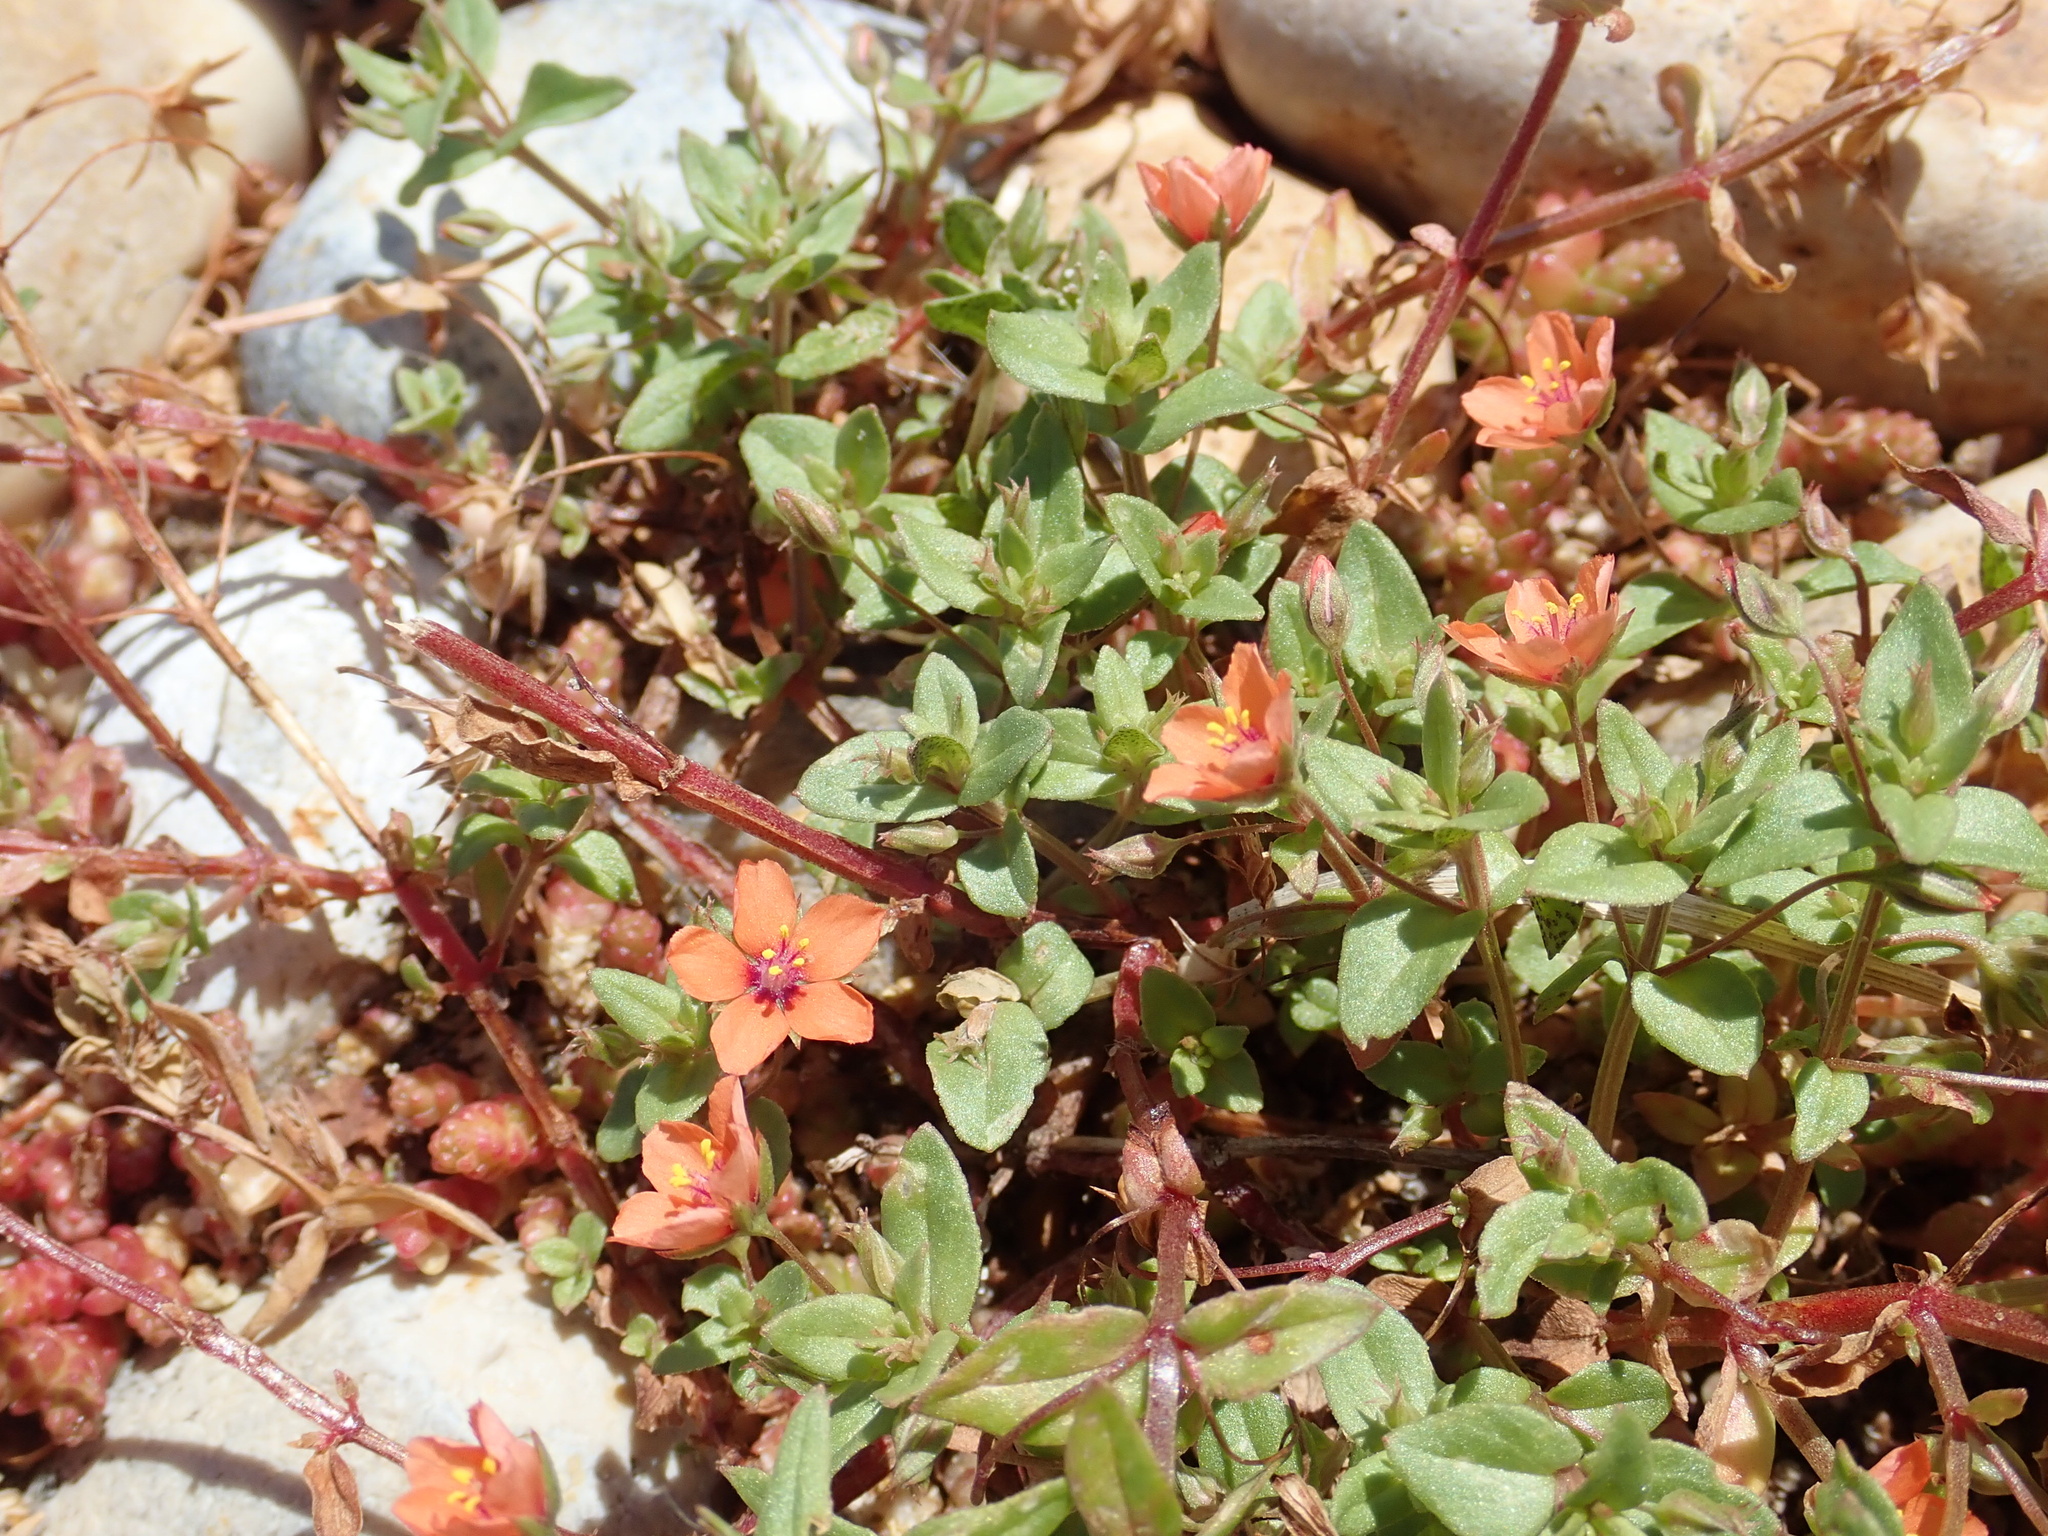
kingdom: Plantae
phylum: Tracheophyta
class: Magnoliopsida
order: Ericales
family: Primulaceae
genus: Lysimachia
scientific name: Lysimachia arvensis
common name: Scarlet pimpernel
